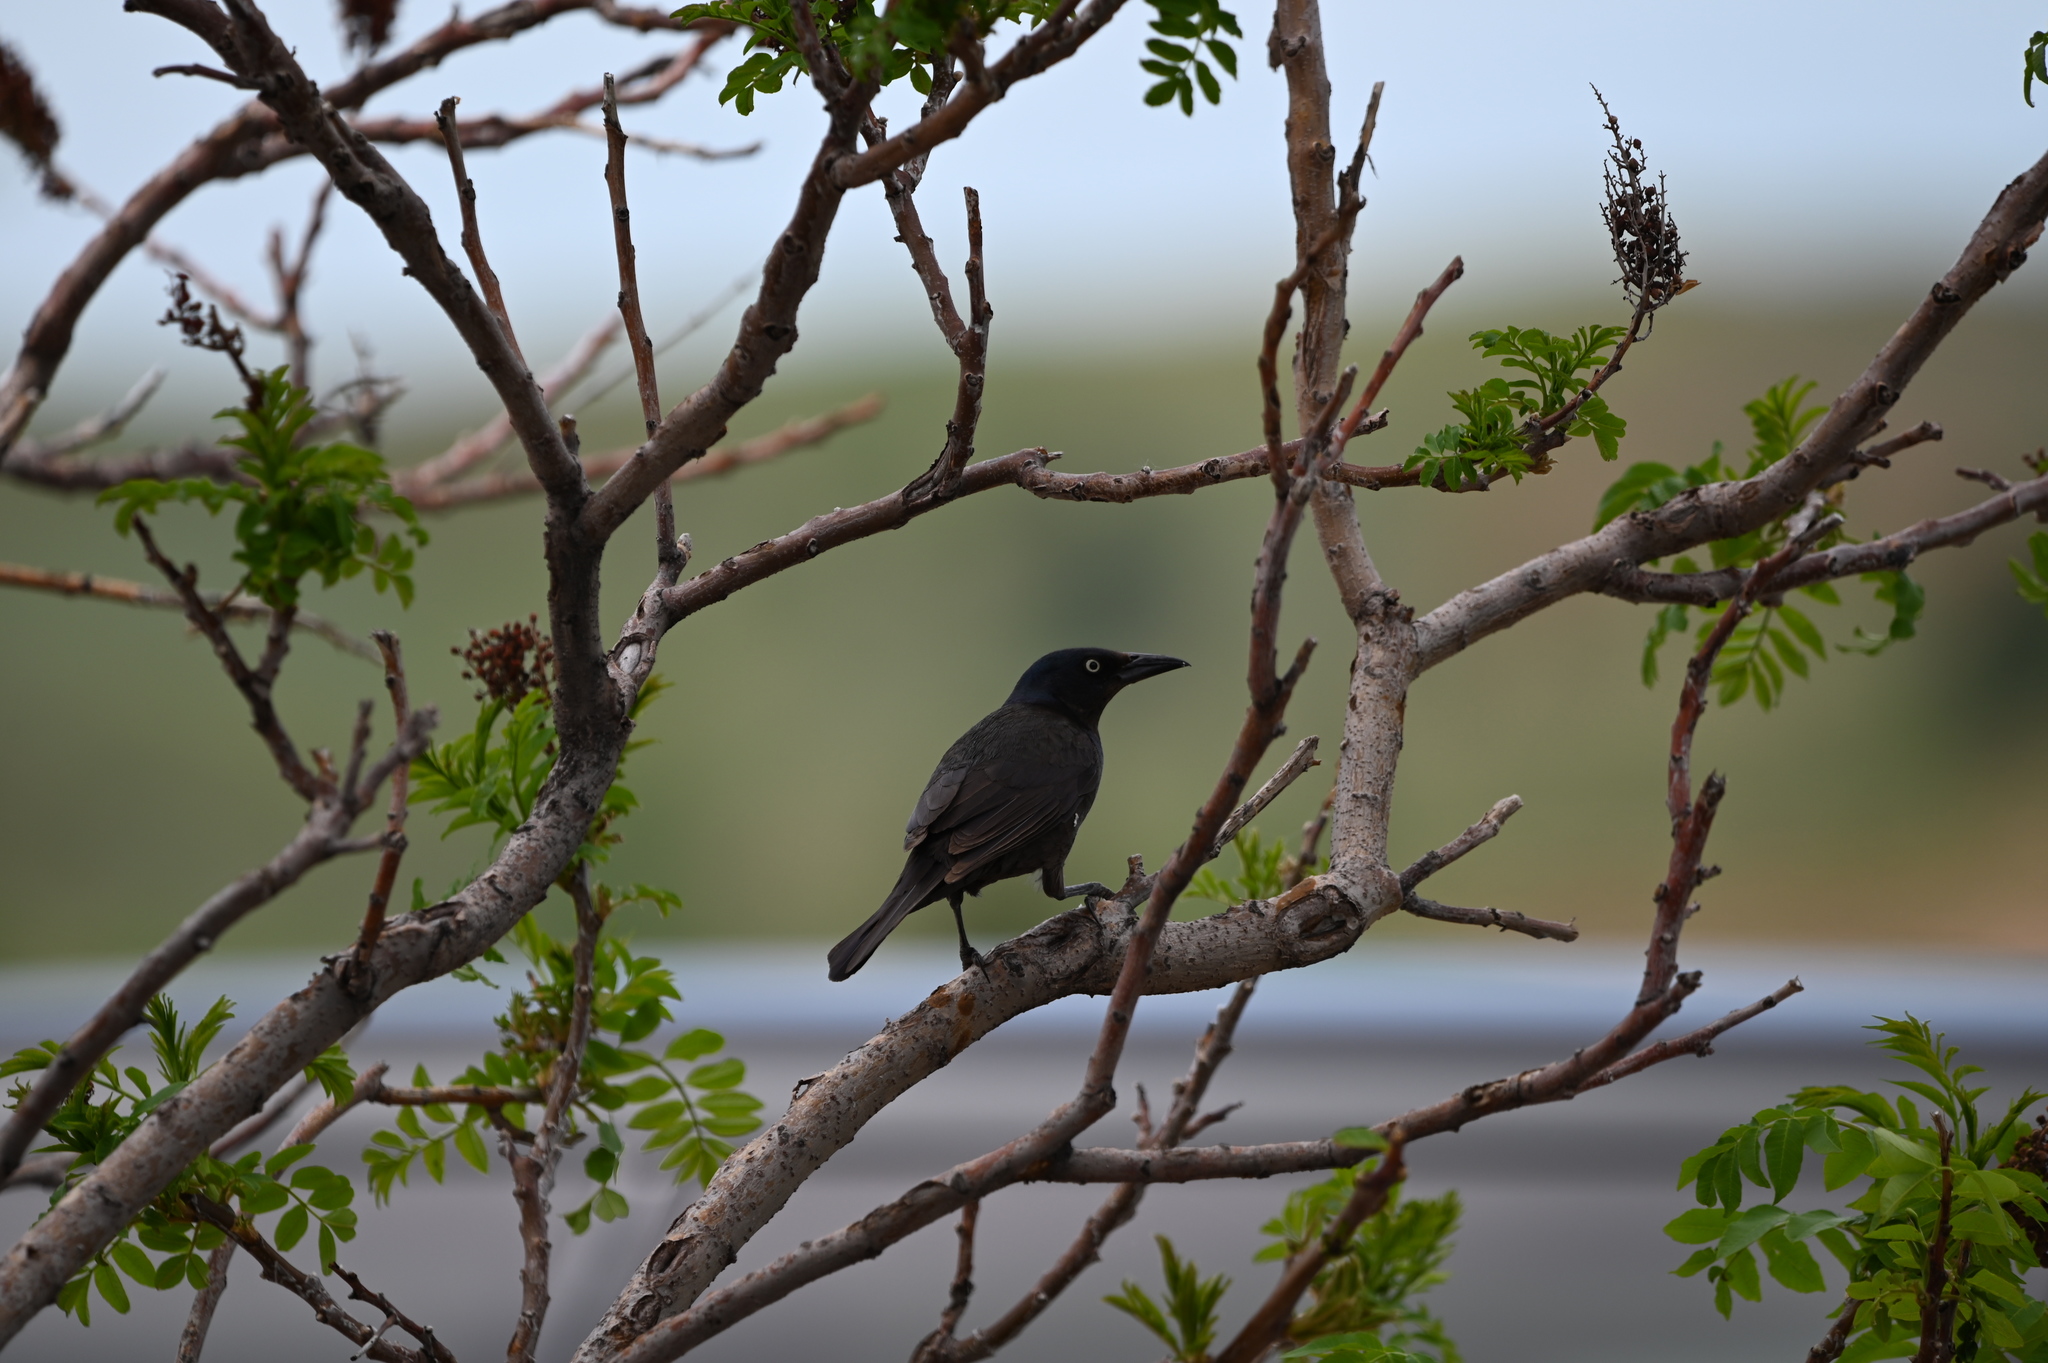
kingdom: Animalia
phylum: Chordata
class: Aves
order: Passeriformes
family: Icteridae
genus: Quiscalus
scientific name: Quiscalus quiscula
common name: Common grackle
